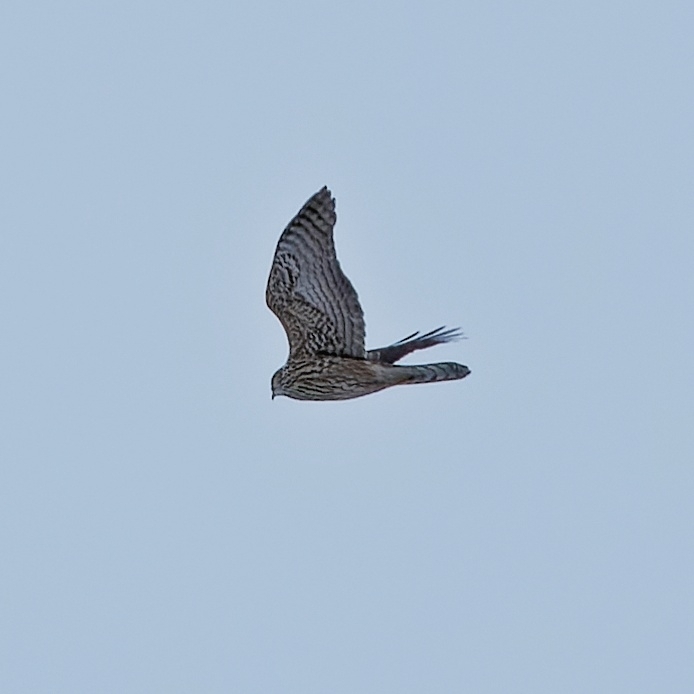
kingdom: Animalia
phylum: Chordata
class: Aves
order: Accipitriformes
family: Accipitridae
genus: Accipiter
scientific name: Accipiter gentilis
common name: Northern goshawk
